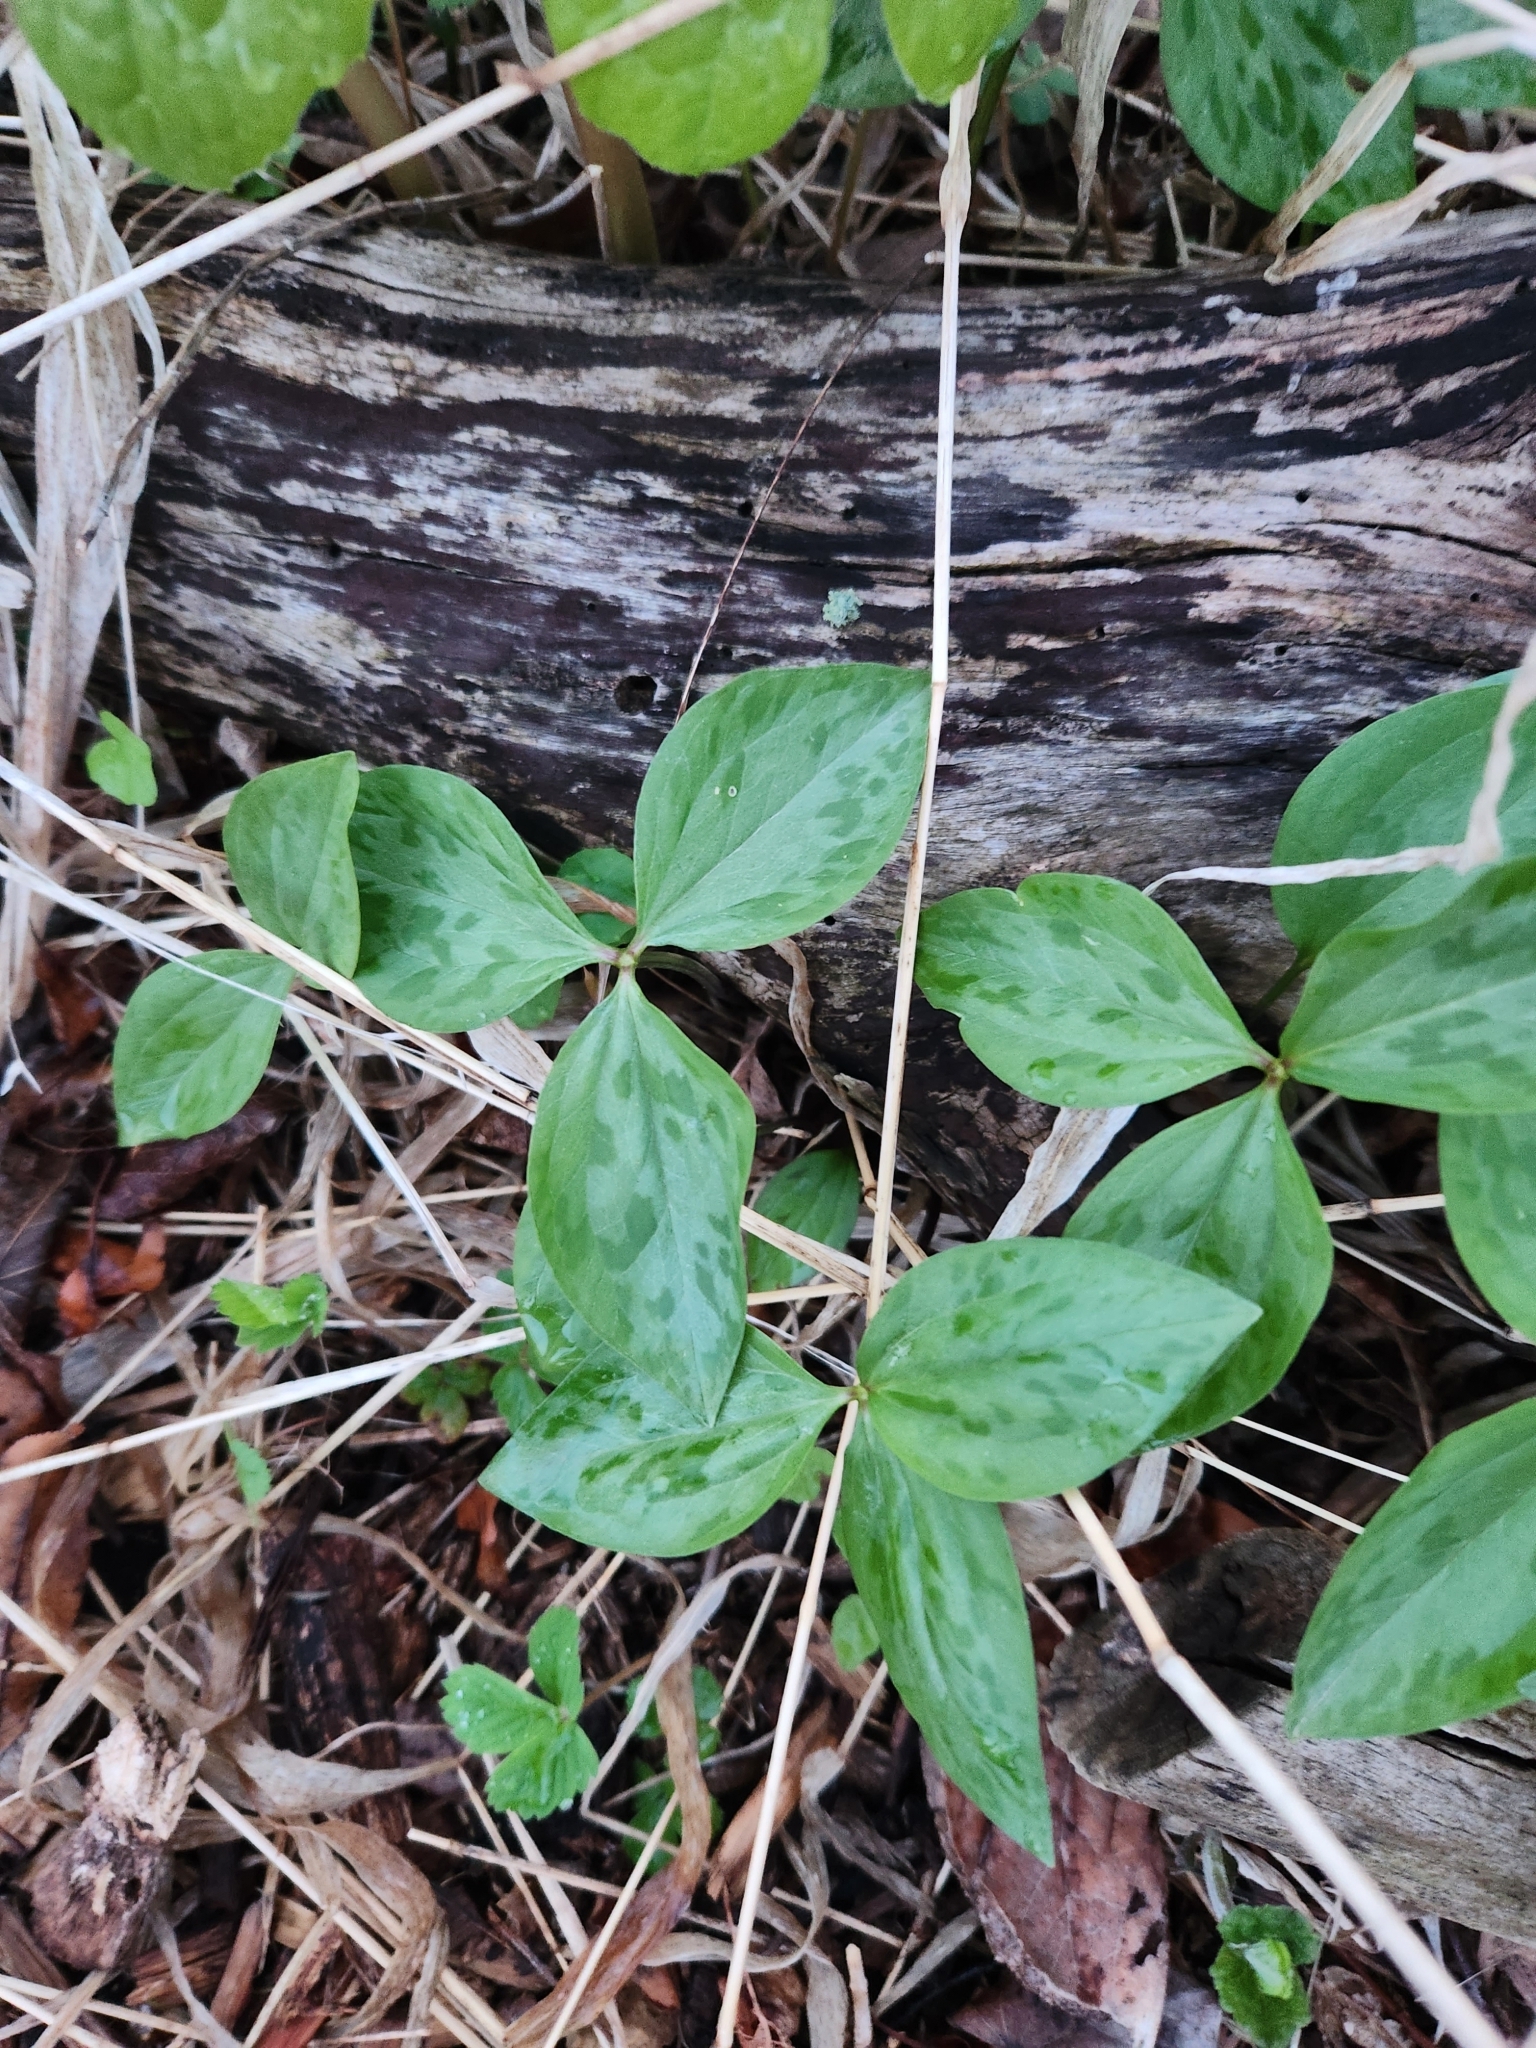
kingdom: Plantae
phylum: Tracheophyta
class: Liliopsida
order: Liliales
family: Melanthiaceae
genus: Trillium
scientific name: Trillium recurvatum
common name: Bloody butcher
